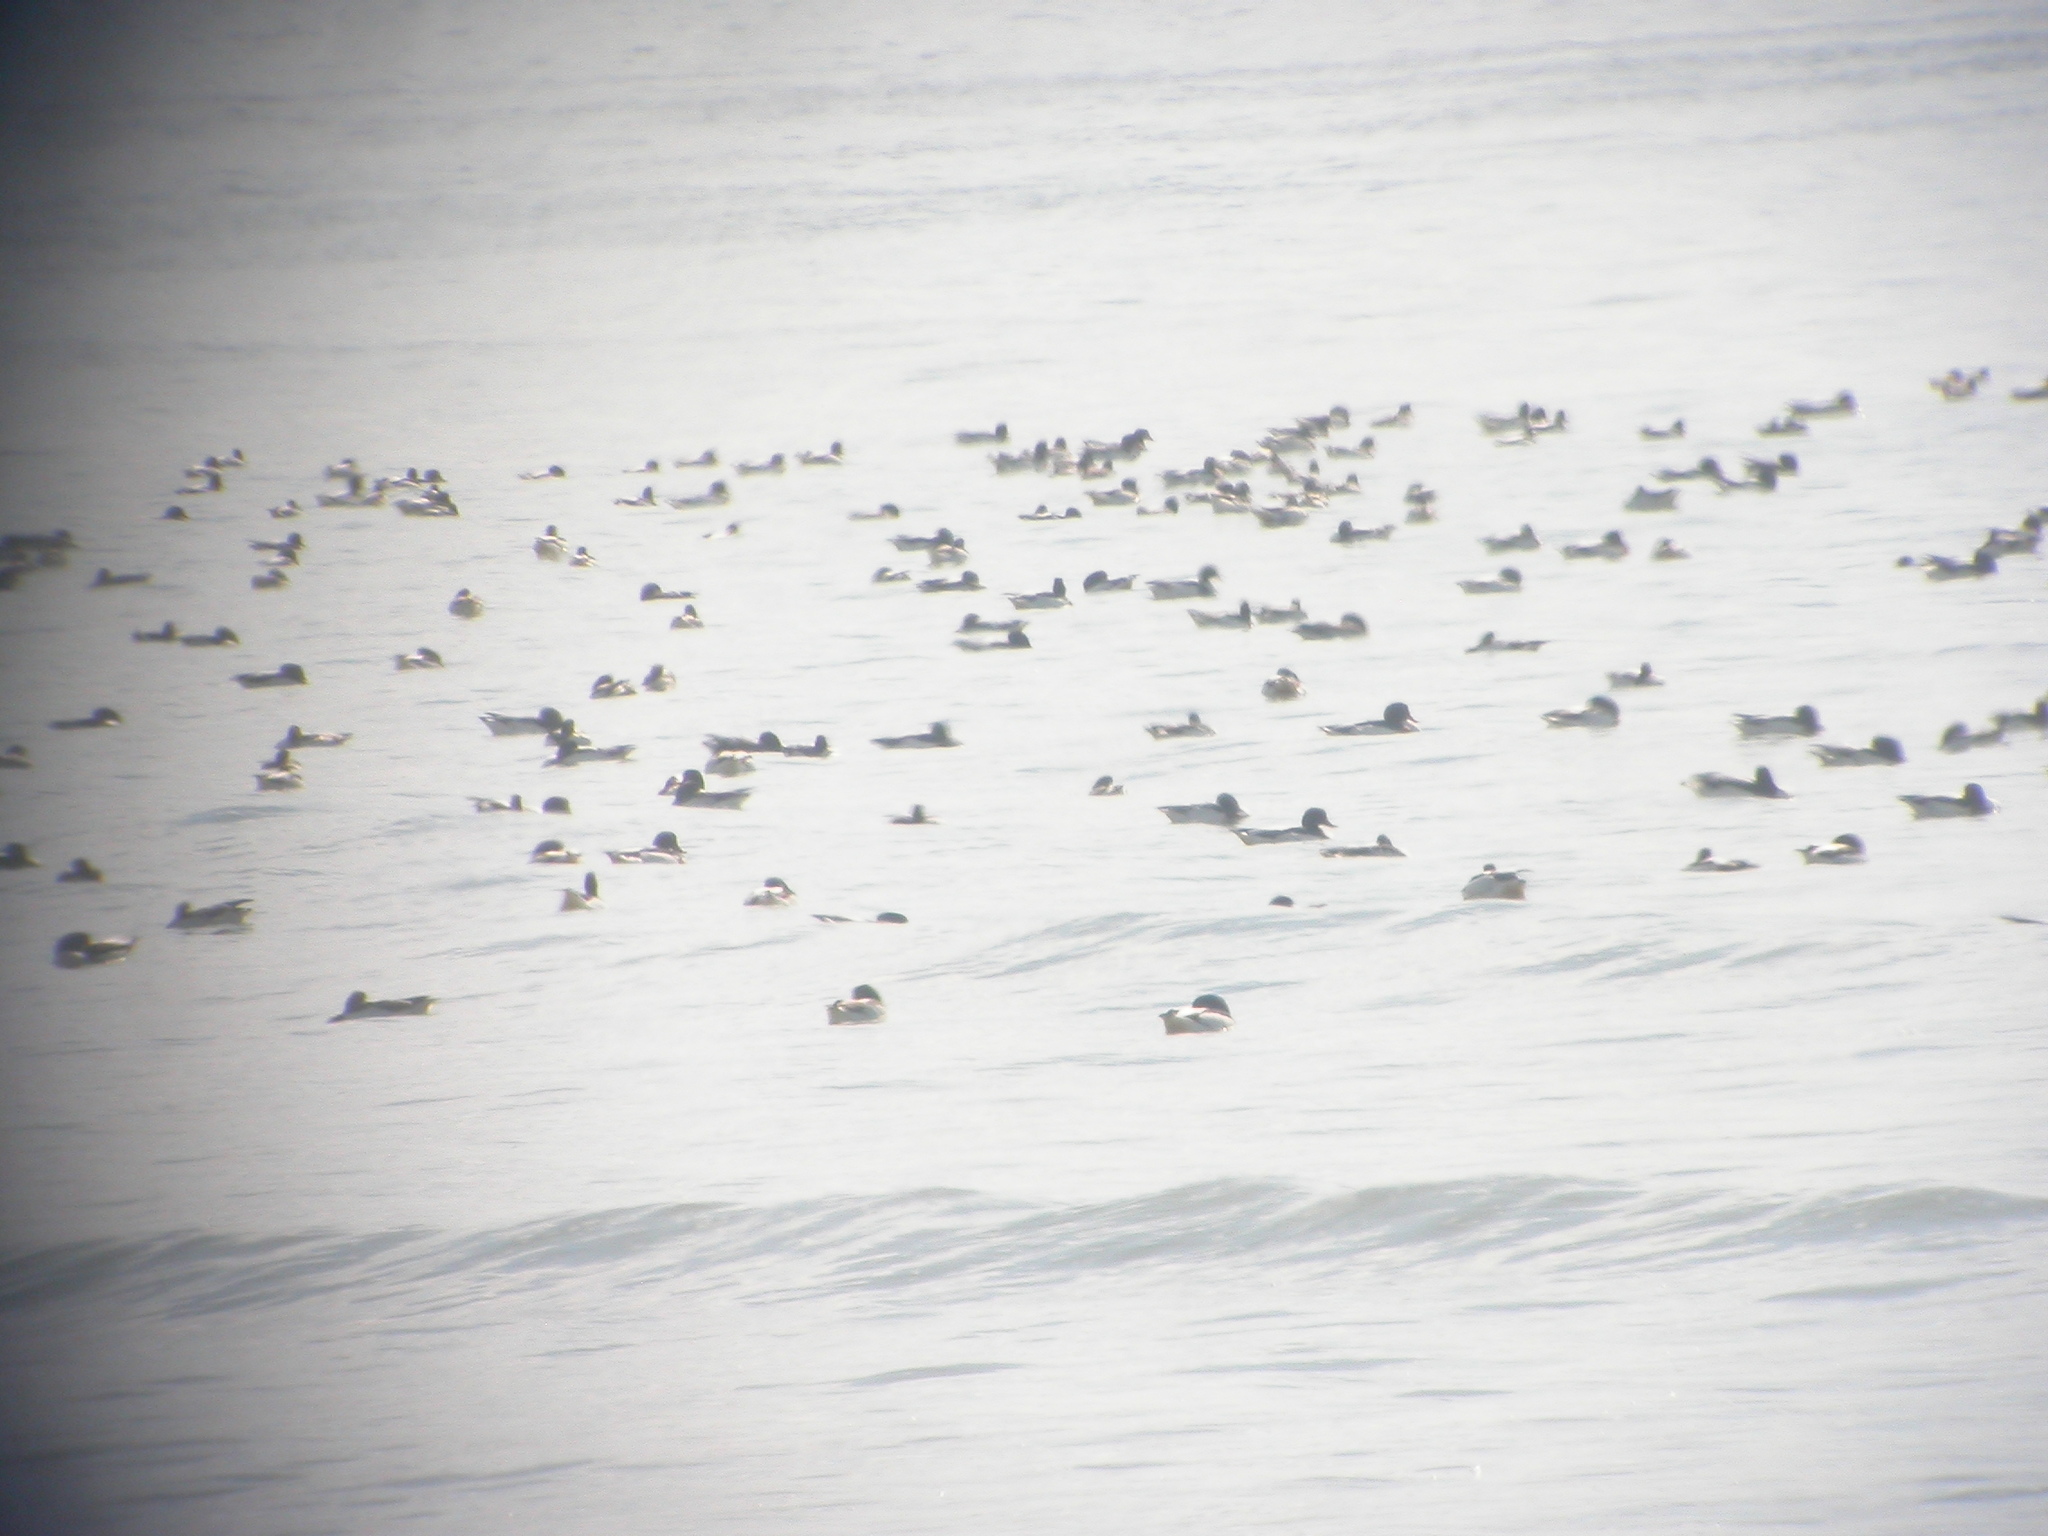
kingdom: Animalia
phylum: Chordata
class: Aves
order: Anseriformes
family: Anatidae
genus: Tadorna
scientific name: Tadorna tadorna
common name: Common shelduck
